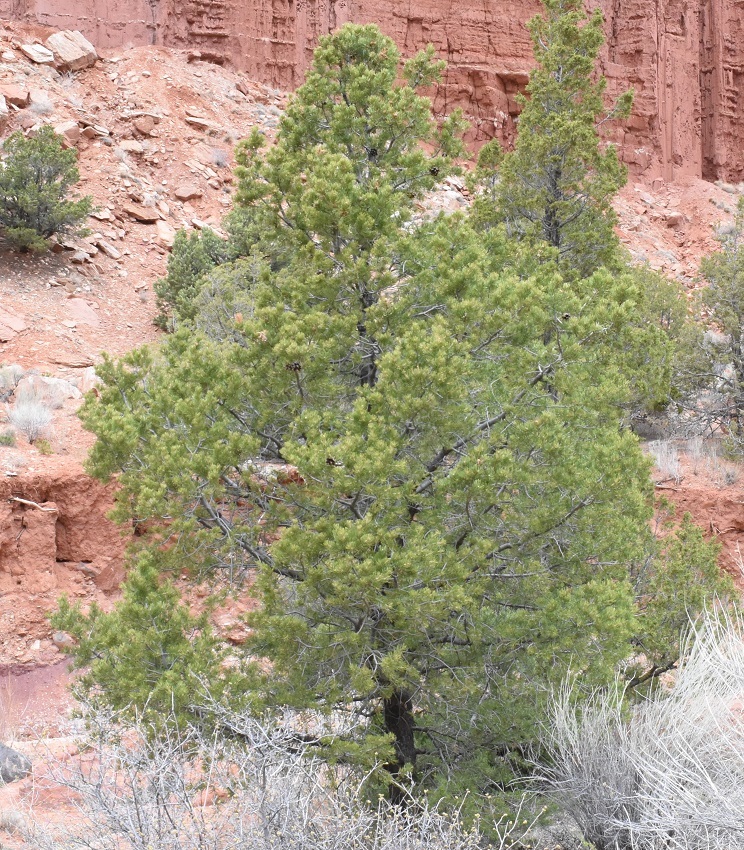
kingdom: Plantae
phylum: Tracheophyta
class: Pinopsida
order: Pinales
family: Pinaceae
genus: Pinus
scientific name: Pinus edulis
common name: Colorado pinyon
